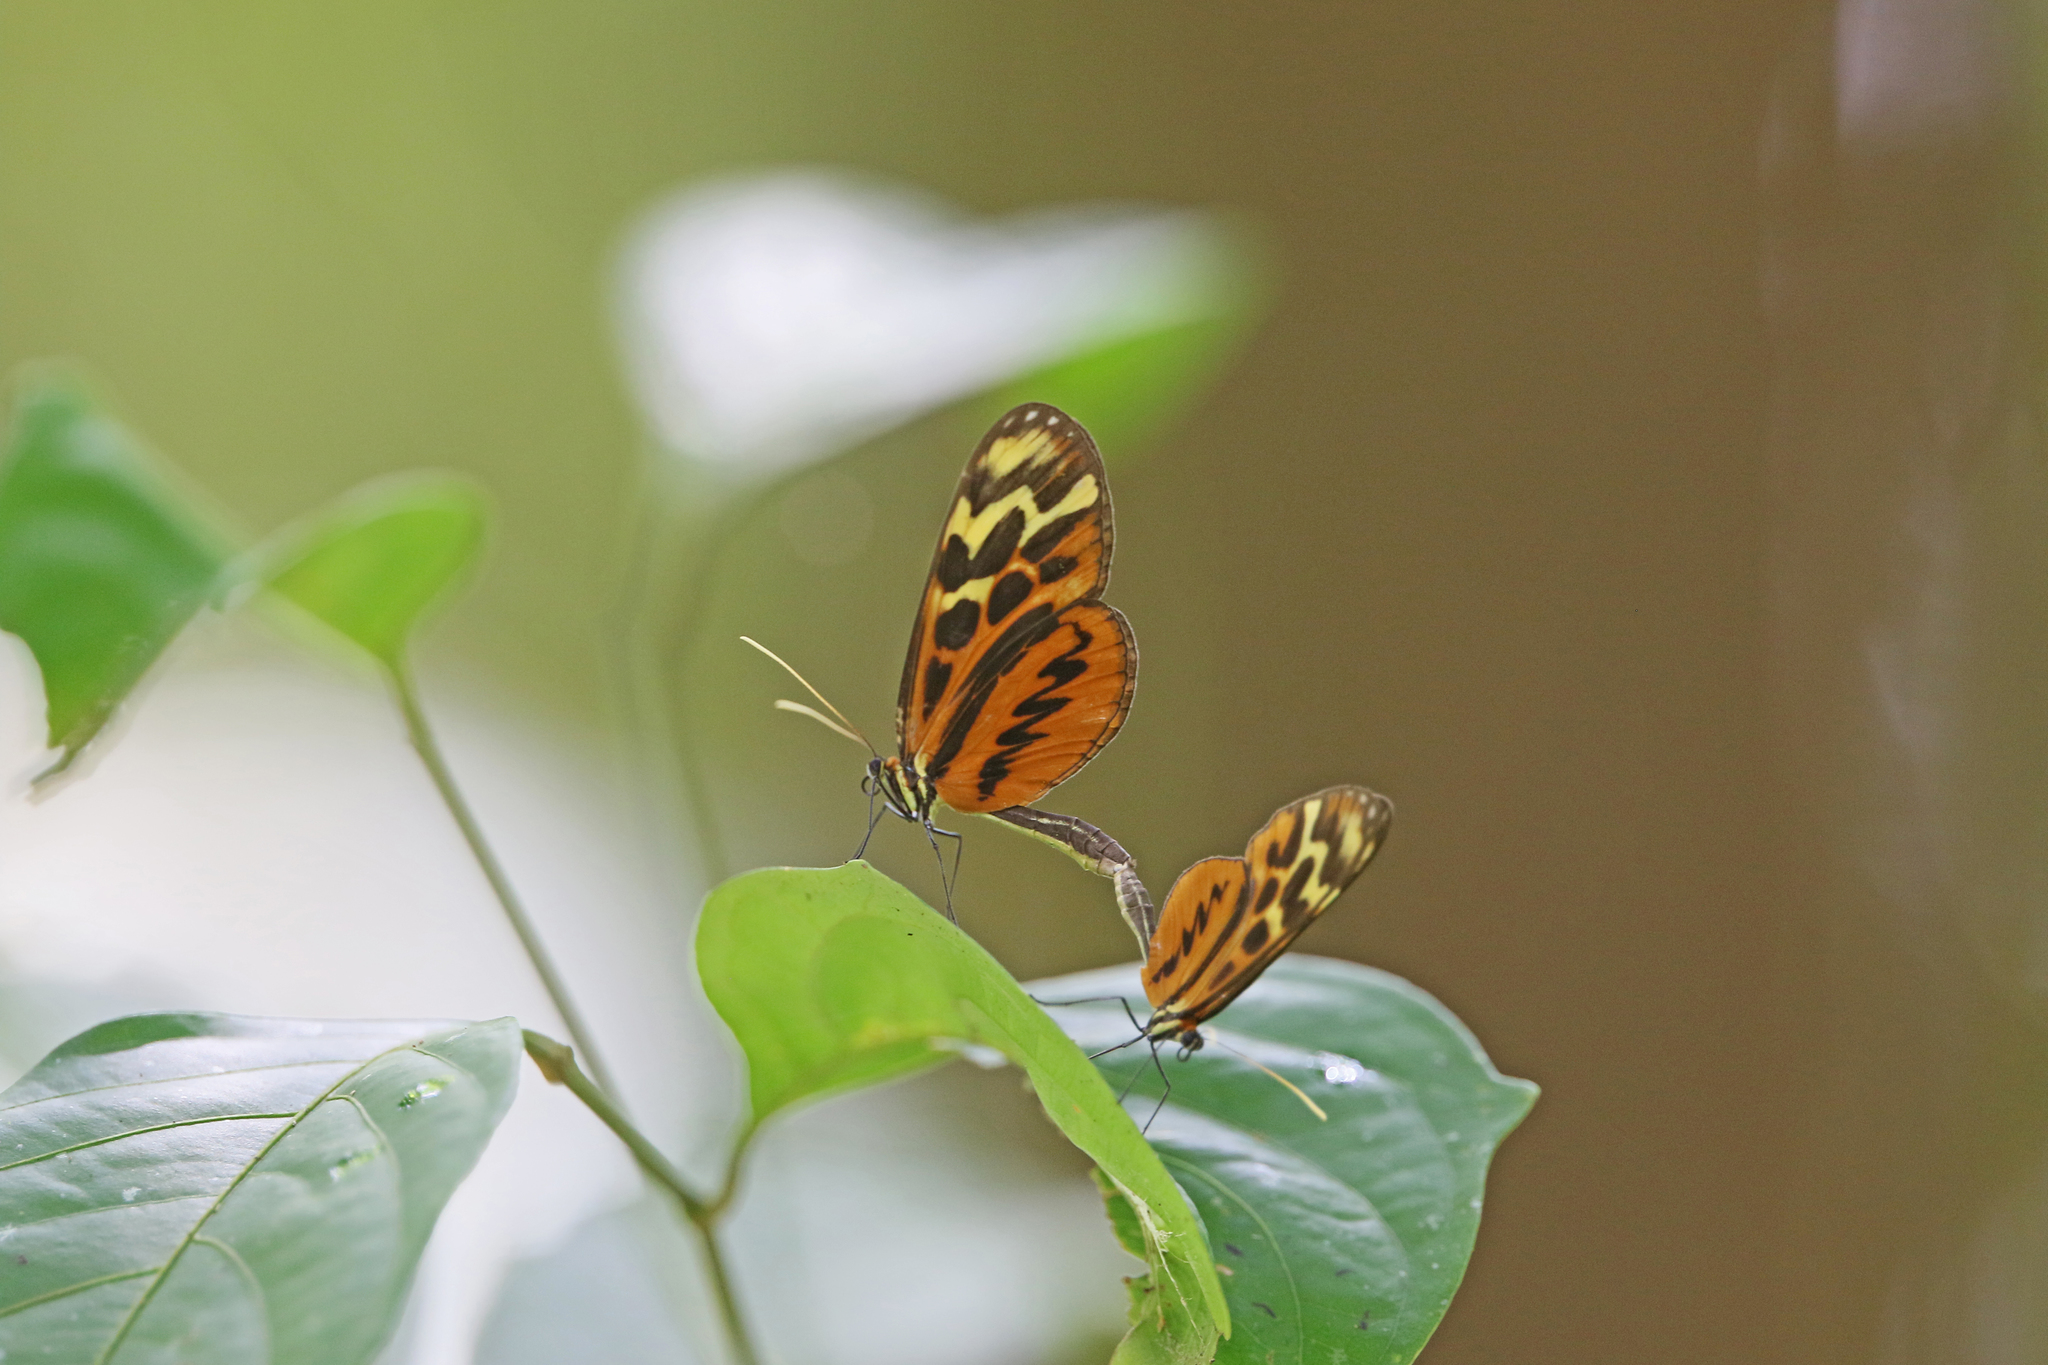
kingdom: Animalia
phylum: Arthropoda
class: Insecta
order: Lepidoptera
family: Nymphalidae
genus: Forbestra
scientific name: Forbestra olivencia
